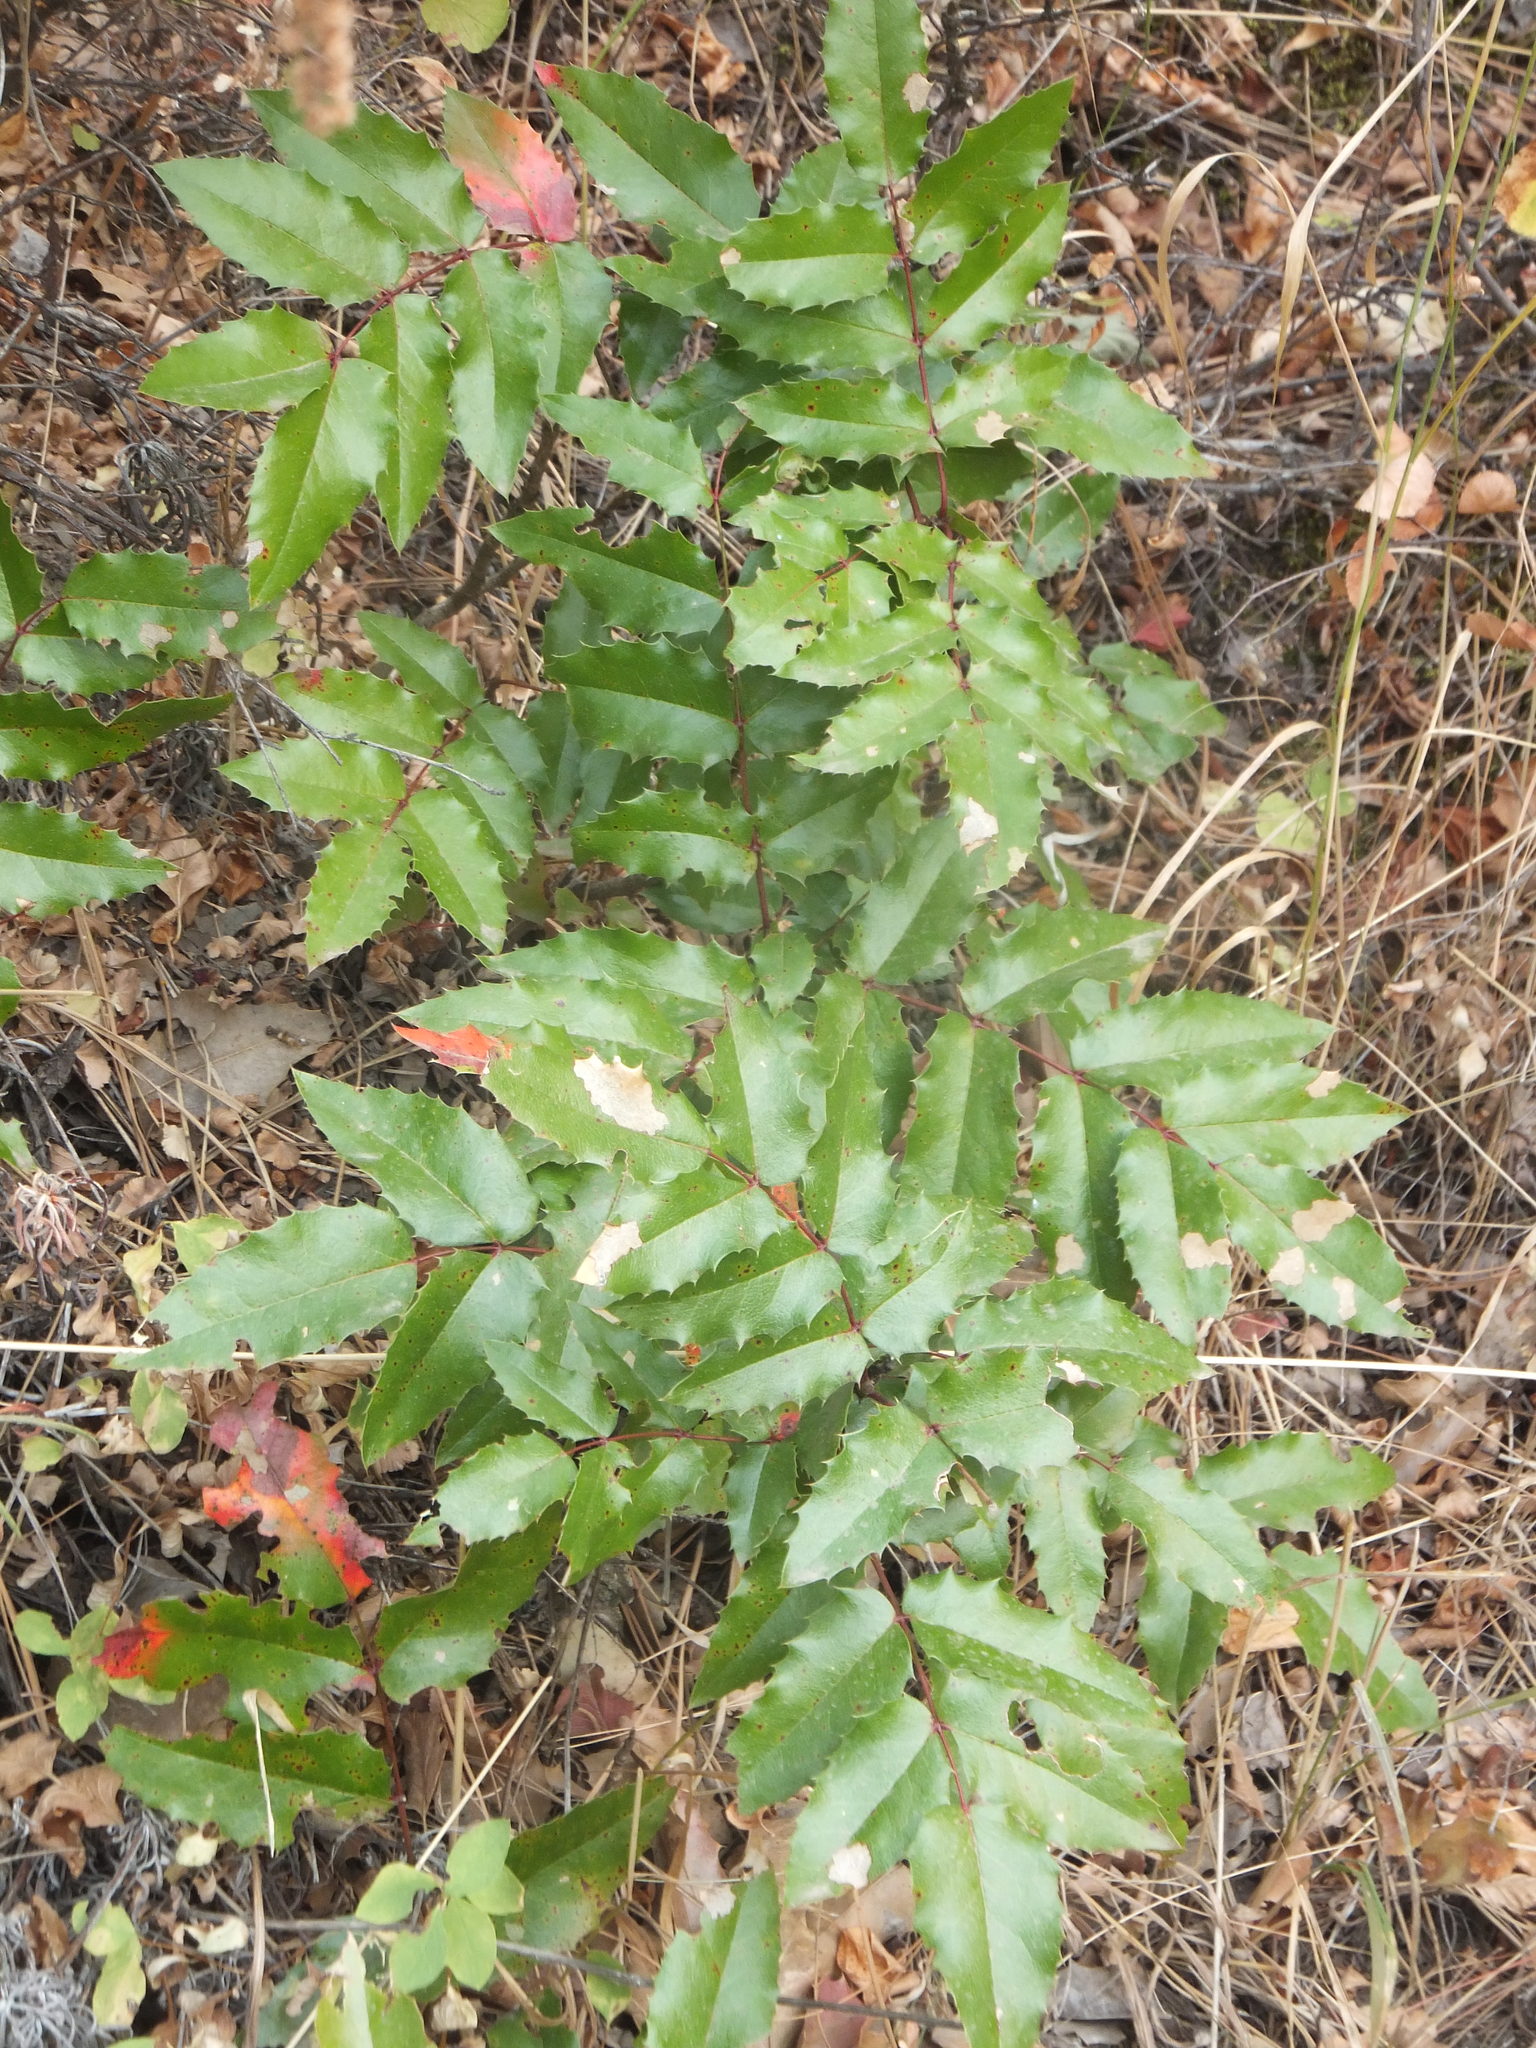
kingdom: Plantae
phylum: Tracheophyta
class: Magnoliopsida
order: Ranunculales
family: Berberidaceae
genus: Mahonia
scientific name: Mahonia aquifolium
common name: Oregon-grape
